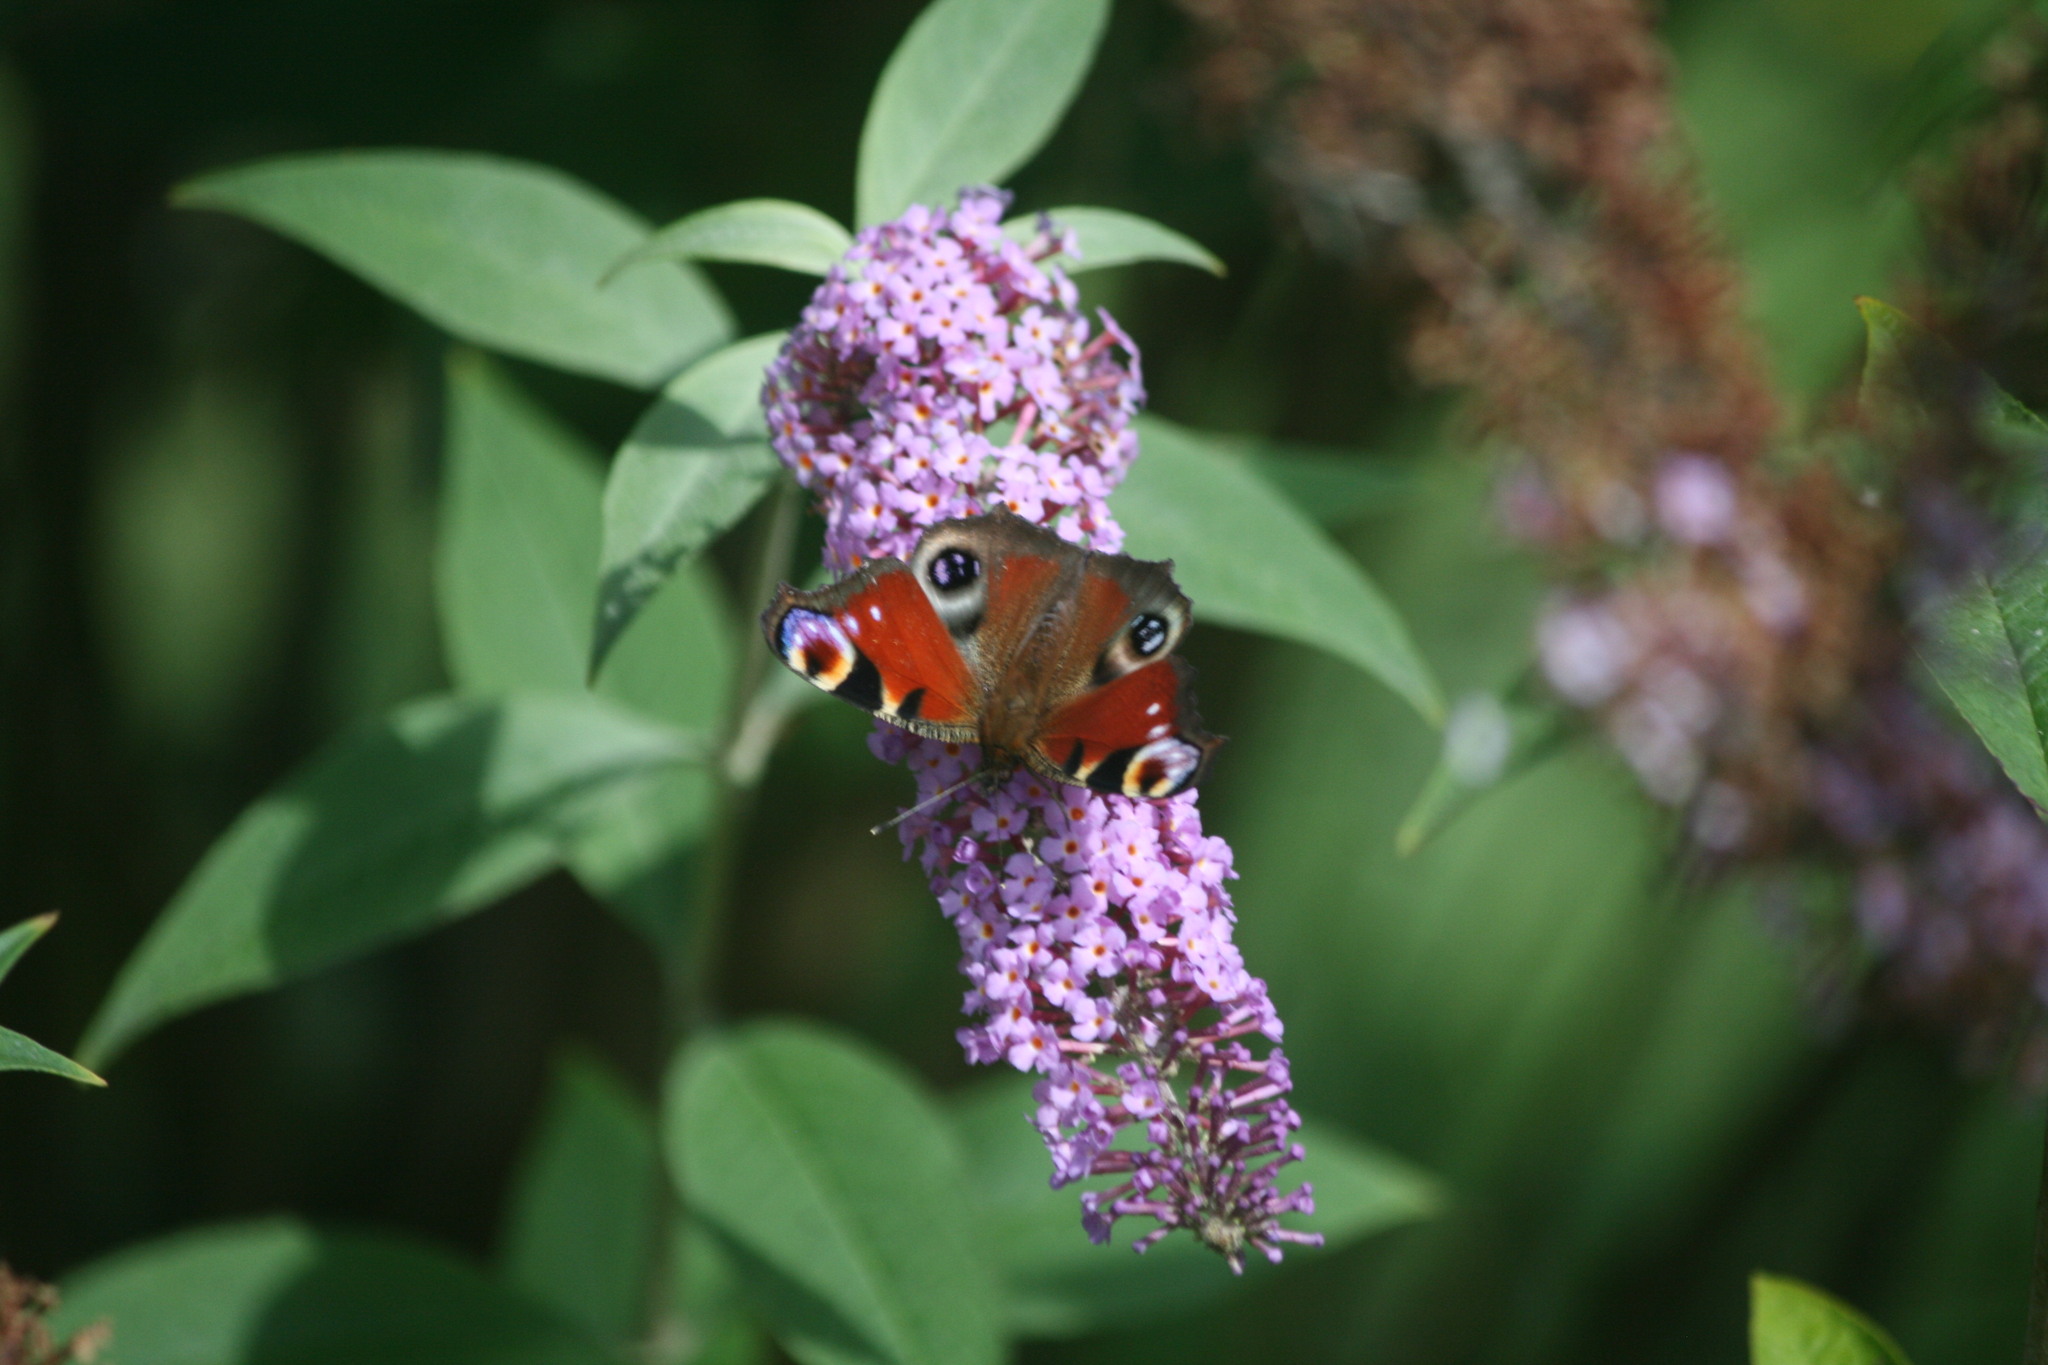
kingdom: Animalia
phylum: Arthropoda
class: Insecta
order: Lepidoptera
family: Nymphalidae
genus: Aglais
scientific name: Aglais io
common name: Peacock
